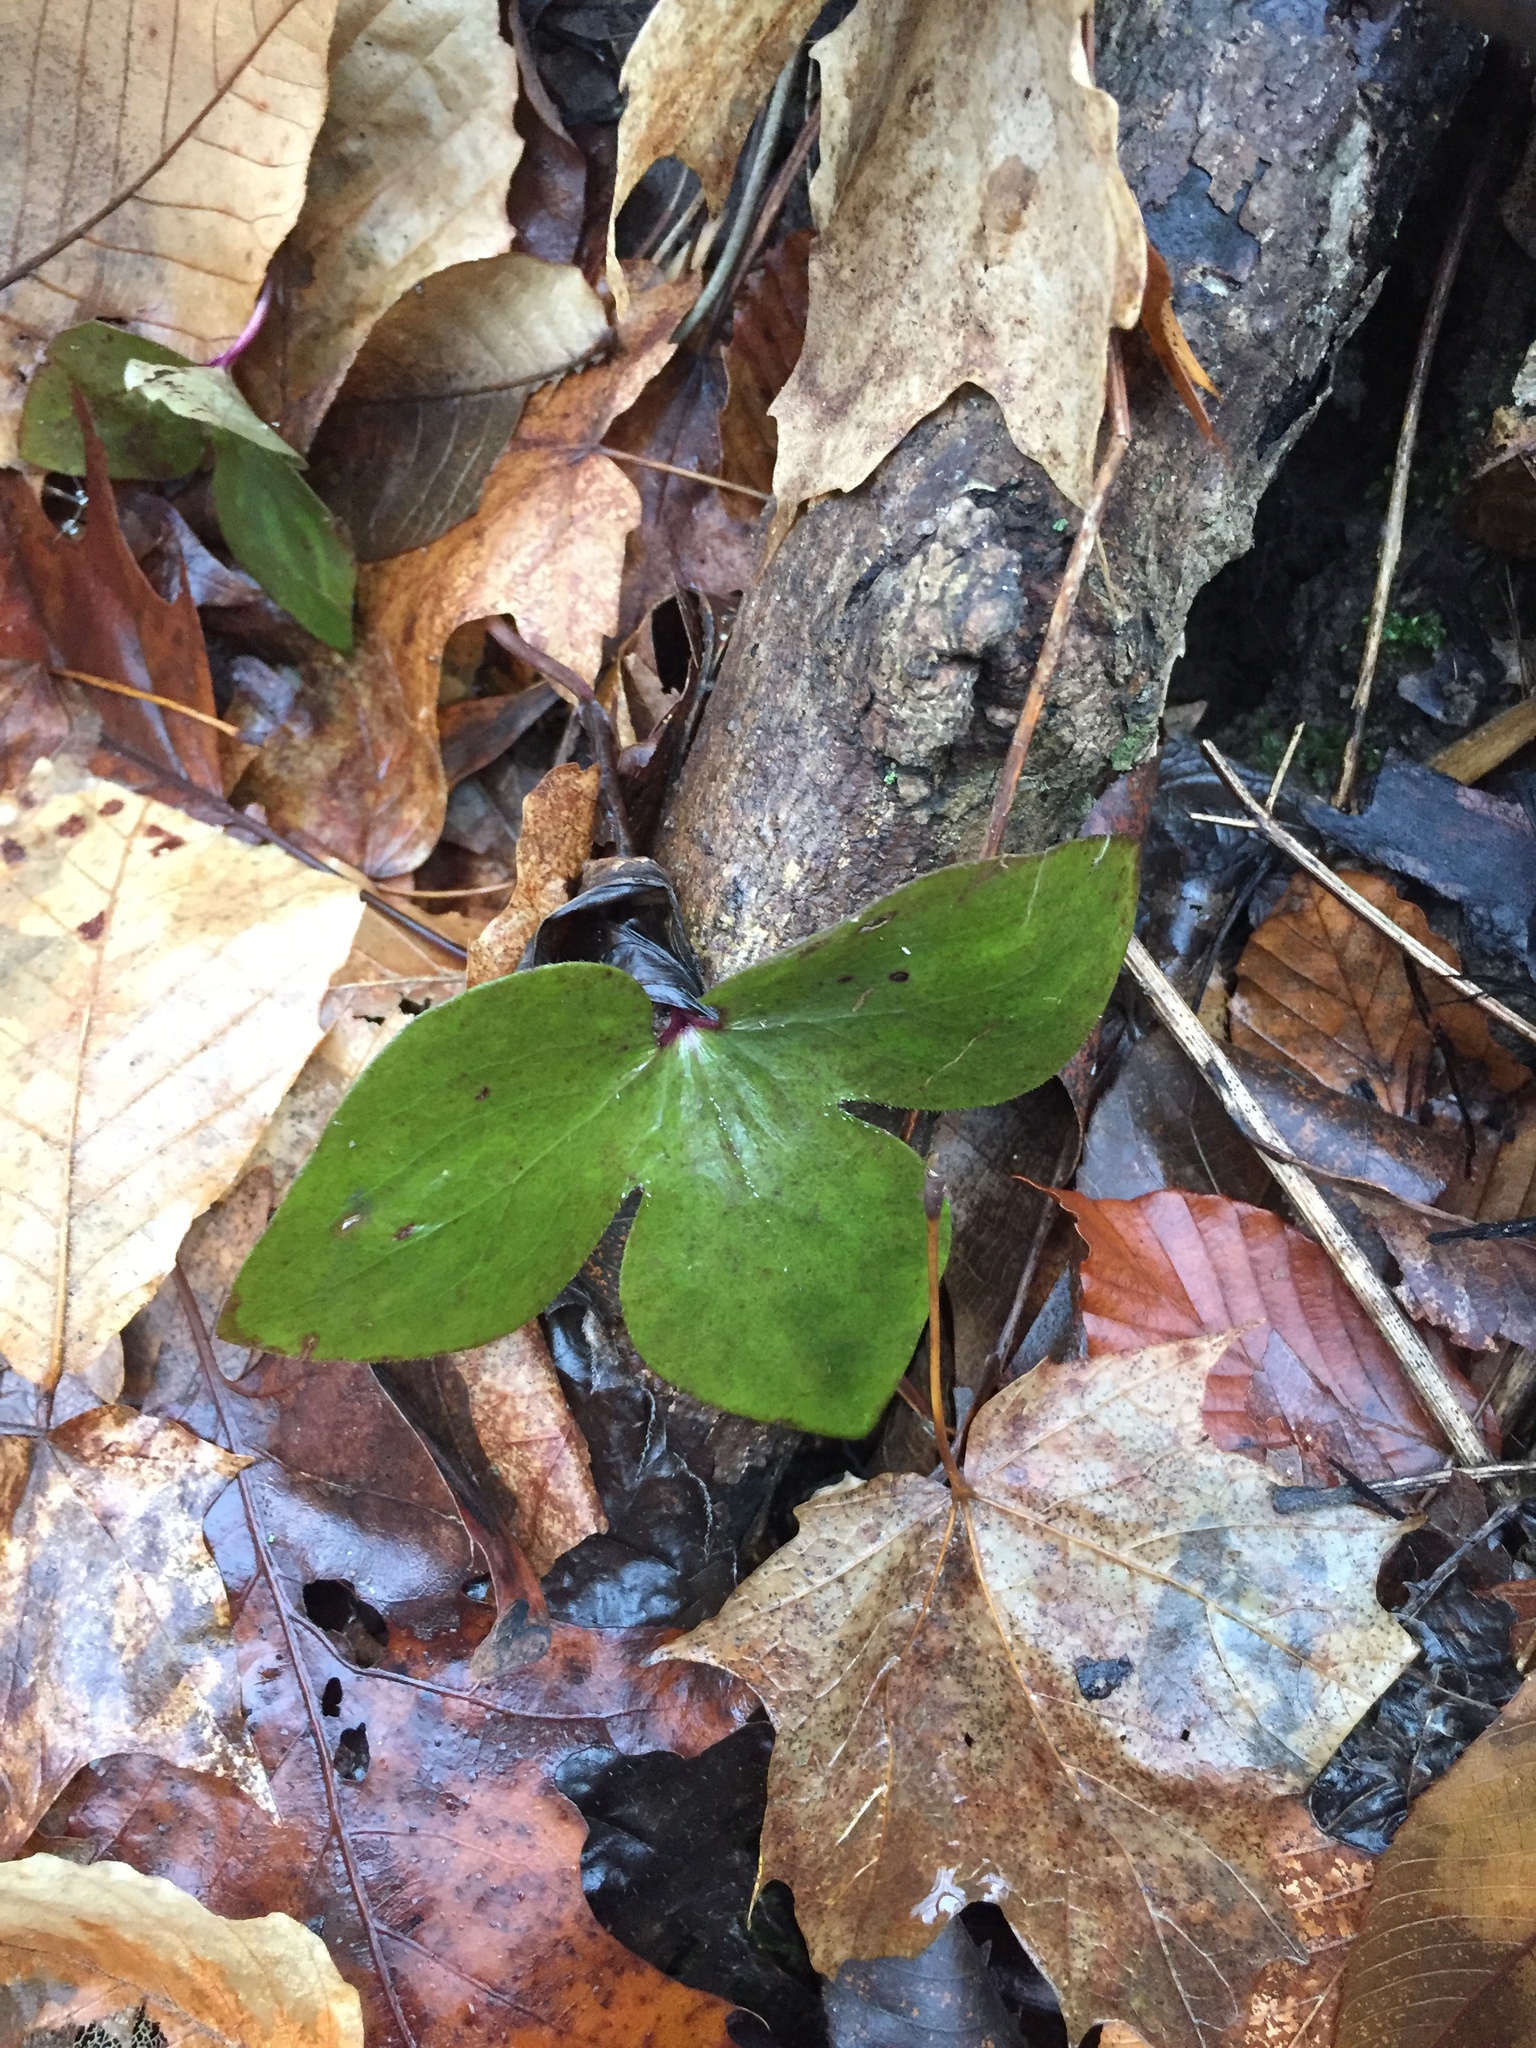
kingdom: Plantae
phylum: Tracheophyta
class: Magnoliopsida
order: Ranunculales
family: Ranunculaceae
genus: Hepatica
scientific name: Hepatica acutiloba
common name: Sharp-lobed hepatica
